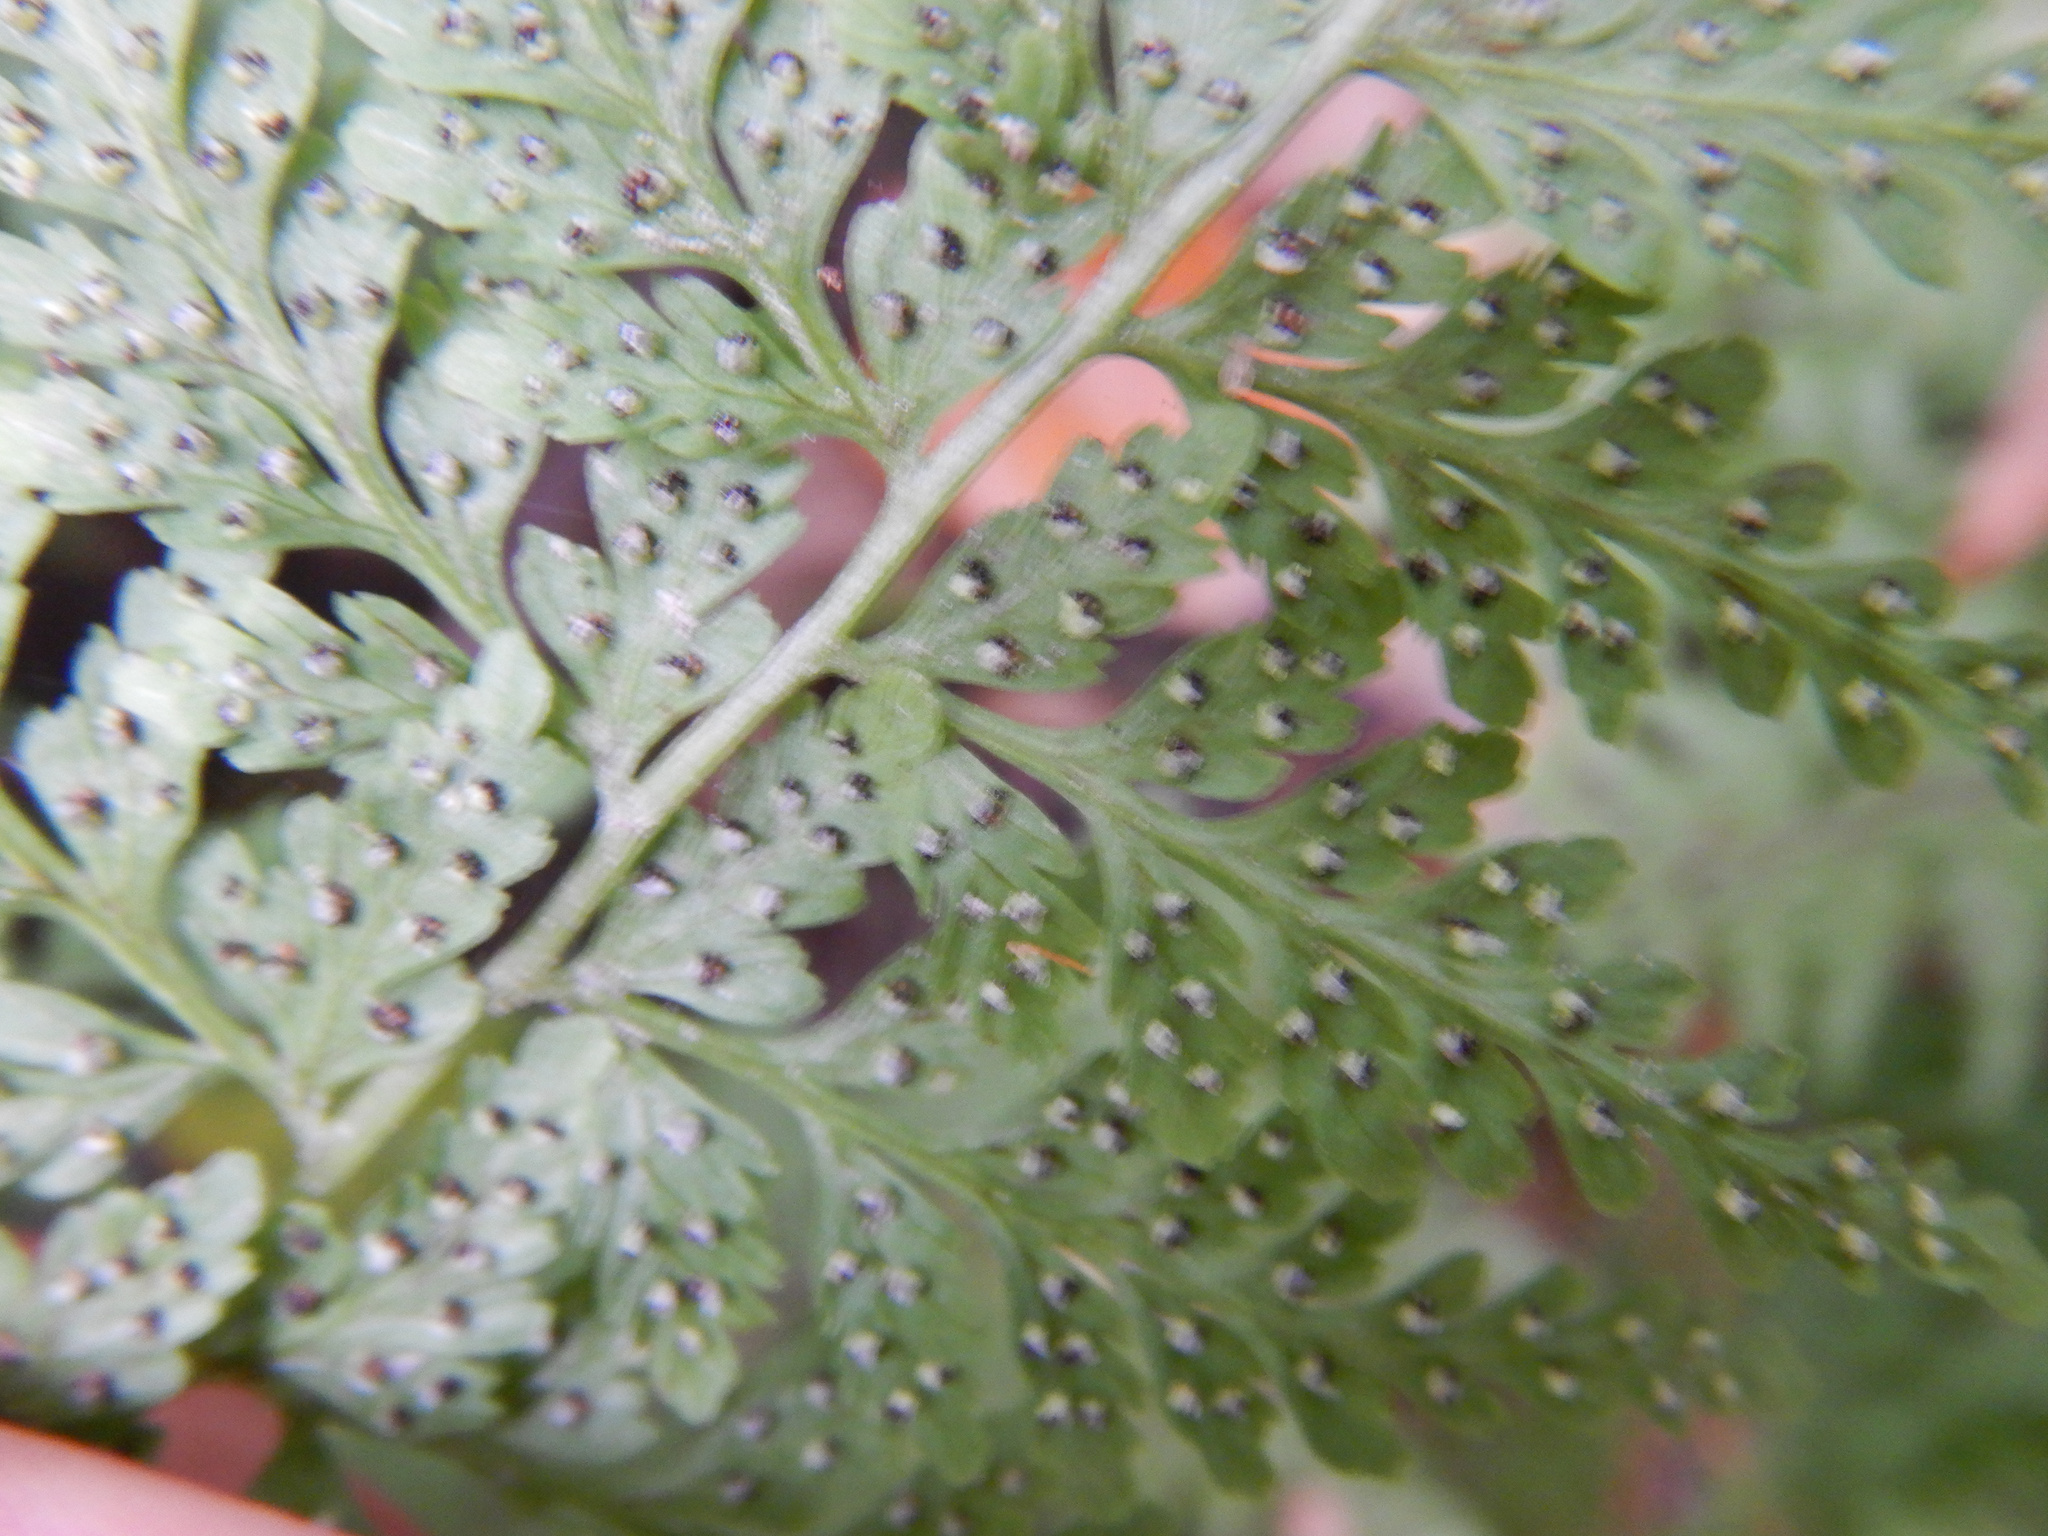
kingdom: Plantae
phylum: Tracheophyta
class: Polypodiopsida
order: Polypodiales
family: Cystopteridaceae
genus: Cystopteris
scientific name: Cystopteris fragilis
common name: Brittle bladder fern
